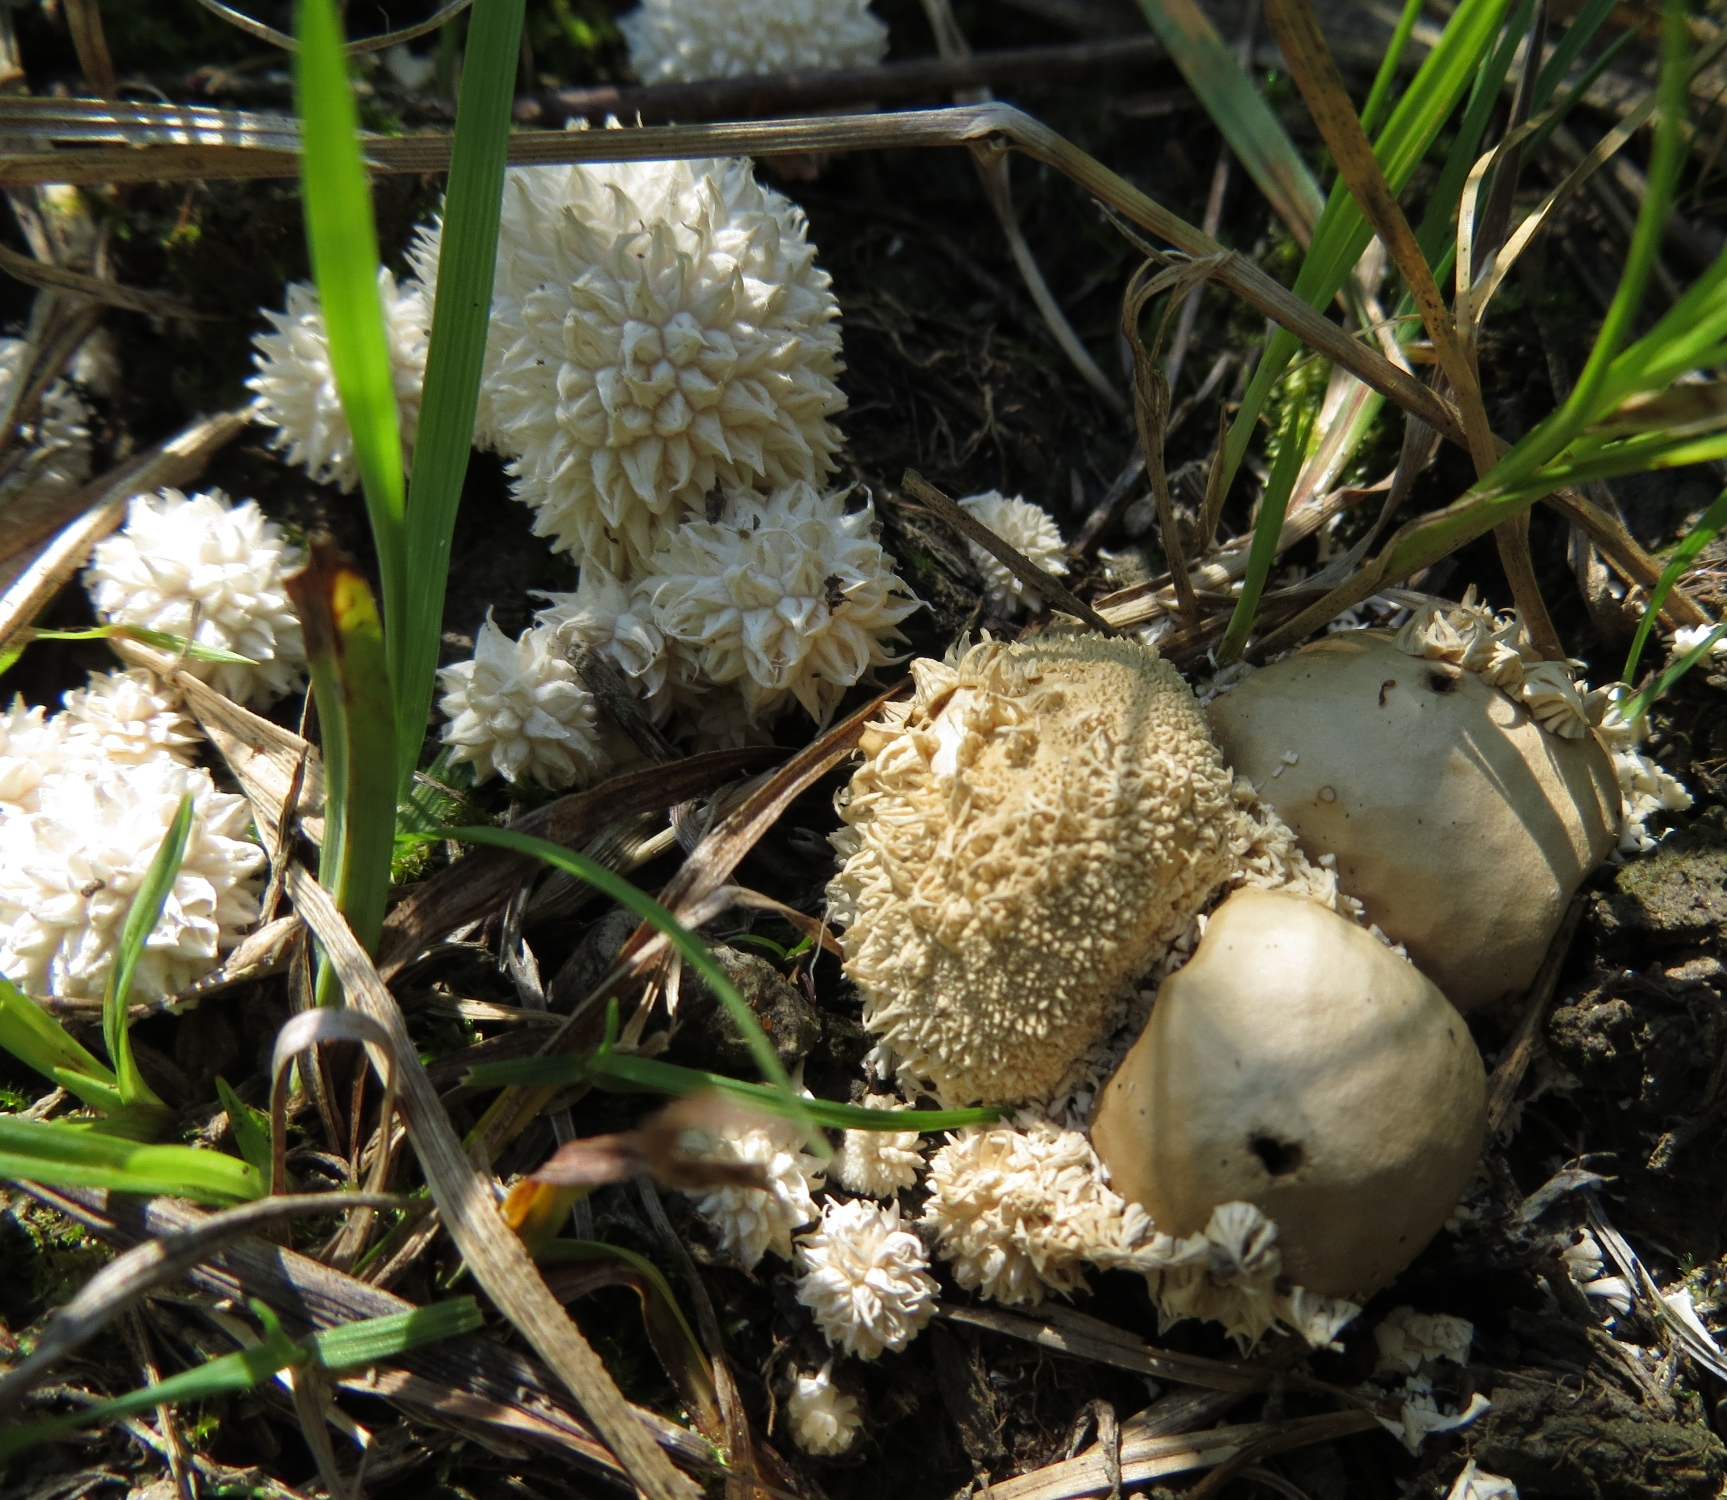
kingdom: Fungi
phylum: Basidiomycota
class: Agaricomycetes
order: Agaricales
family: Lycoperdaceae
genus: Lycoperdon
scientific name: Lycoperdon curtisii
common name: Curtis's puffball
